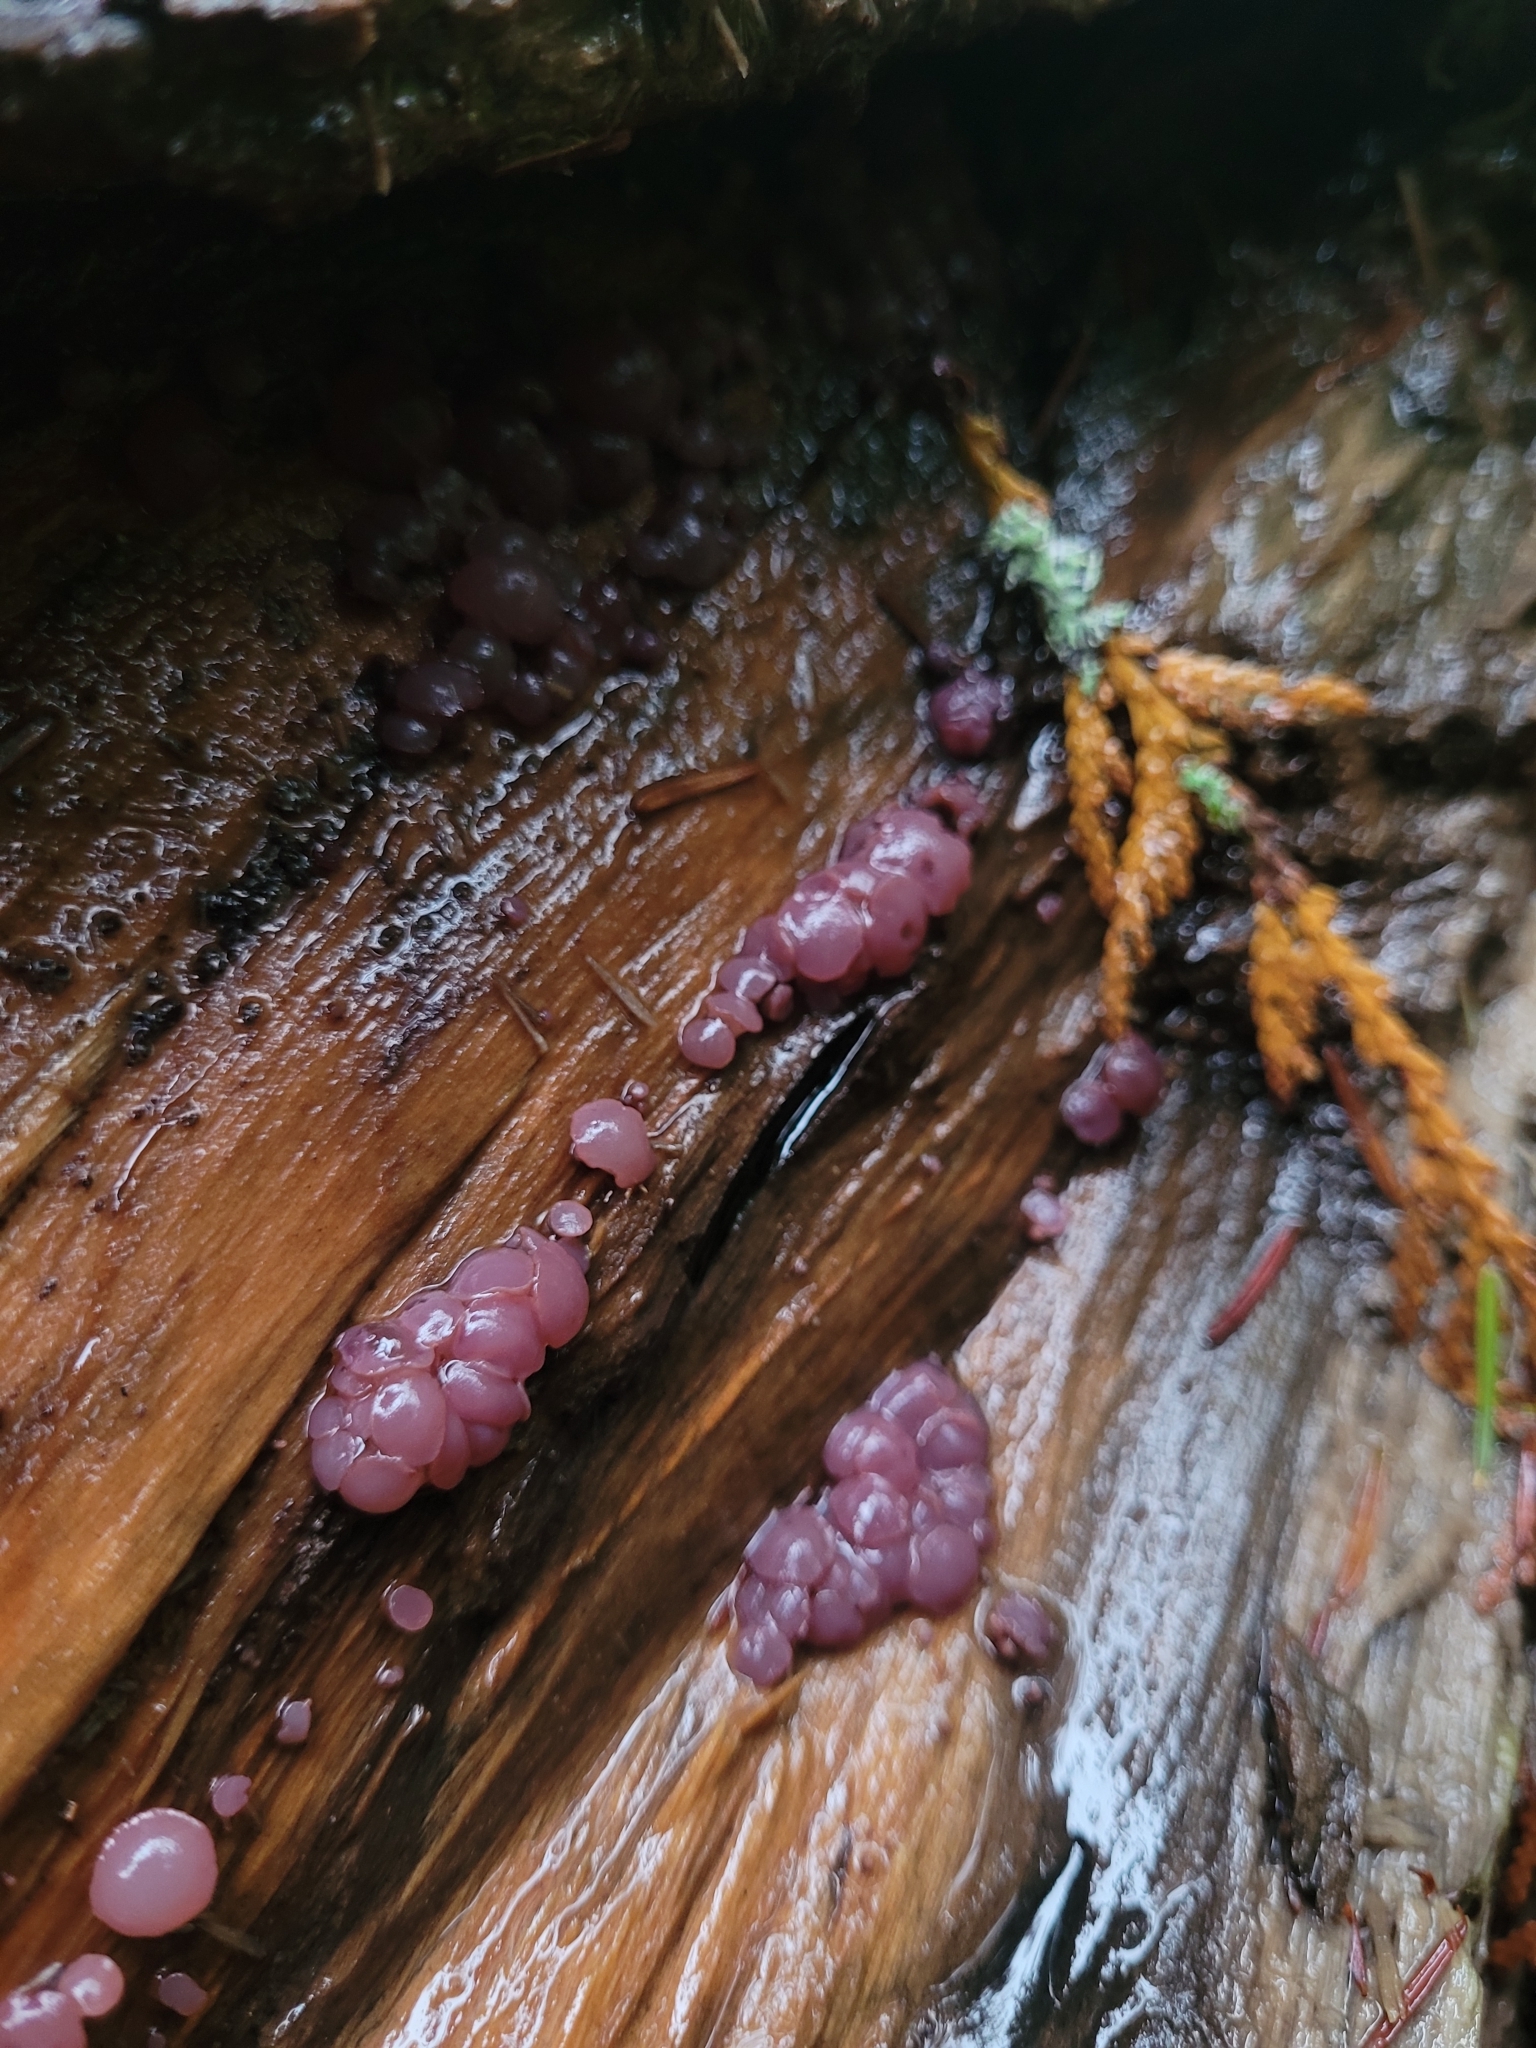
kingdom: Fungi
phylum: Ascomycota
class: Leotiomycetes
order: Helotiales
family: Gelatinodiscaceae
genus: Ascocoryne
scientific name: Ascocoryne sarcoides
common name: Purple jellydisc
